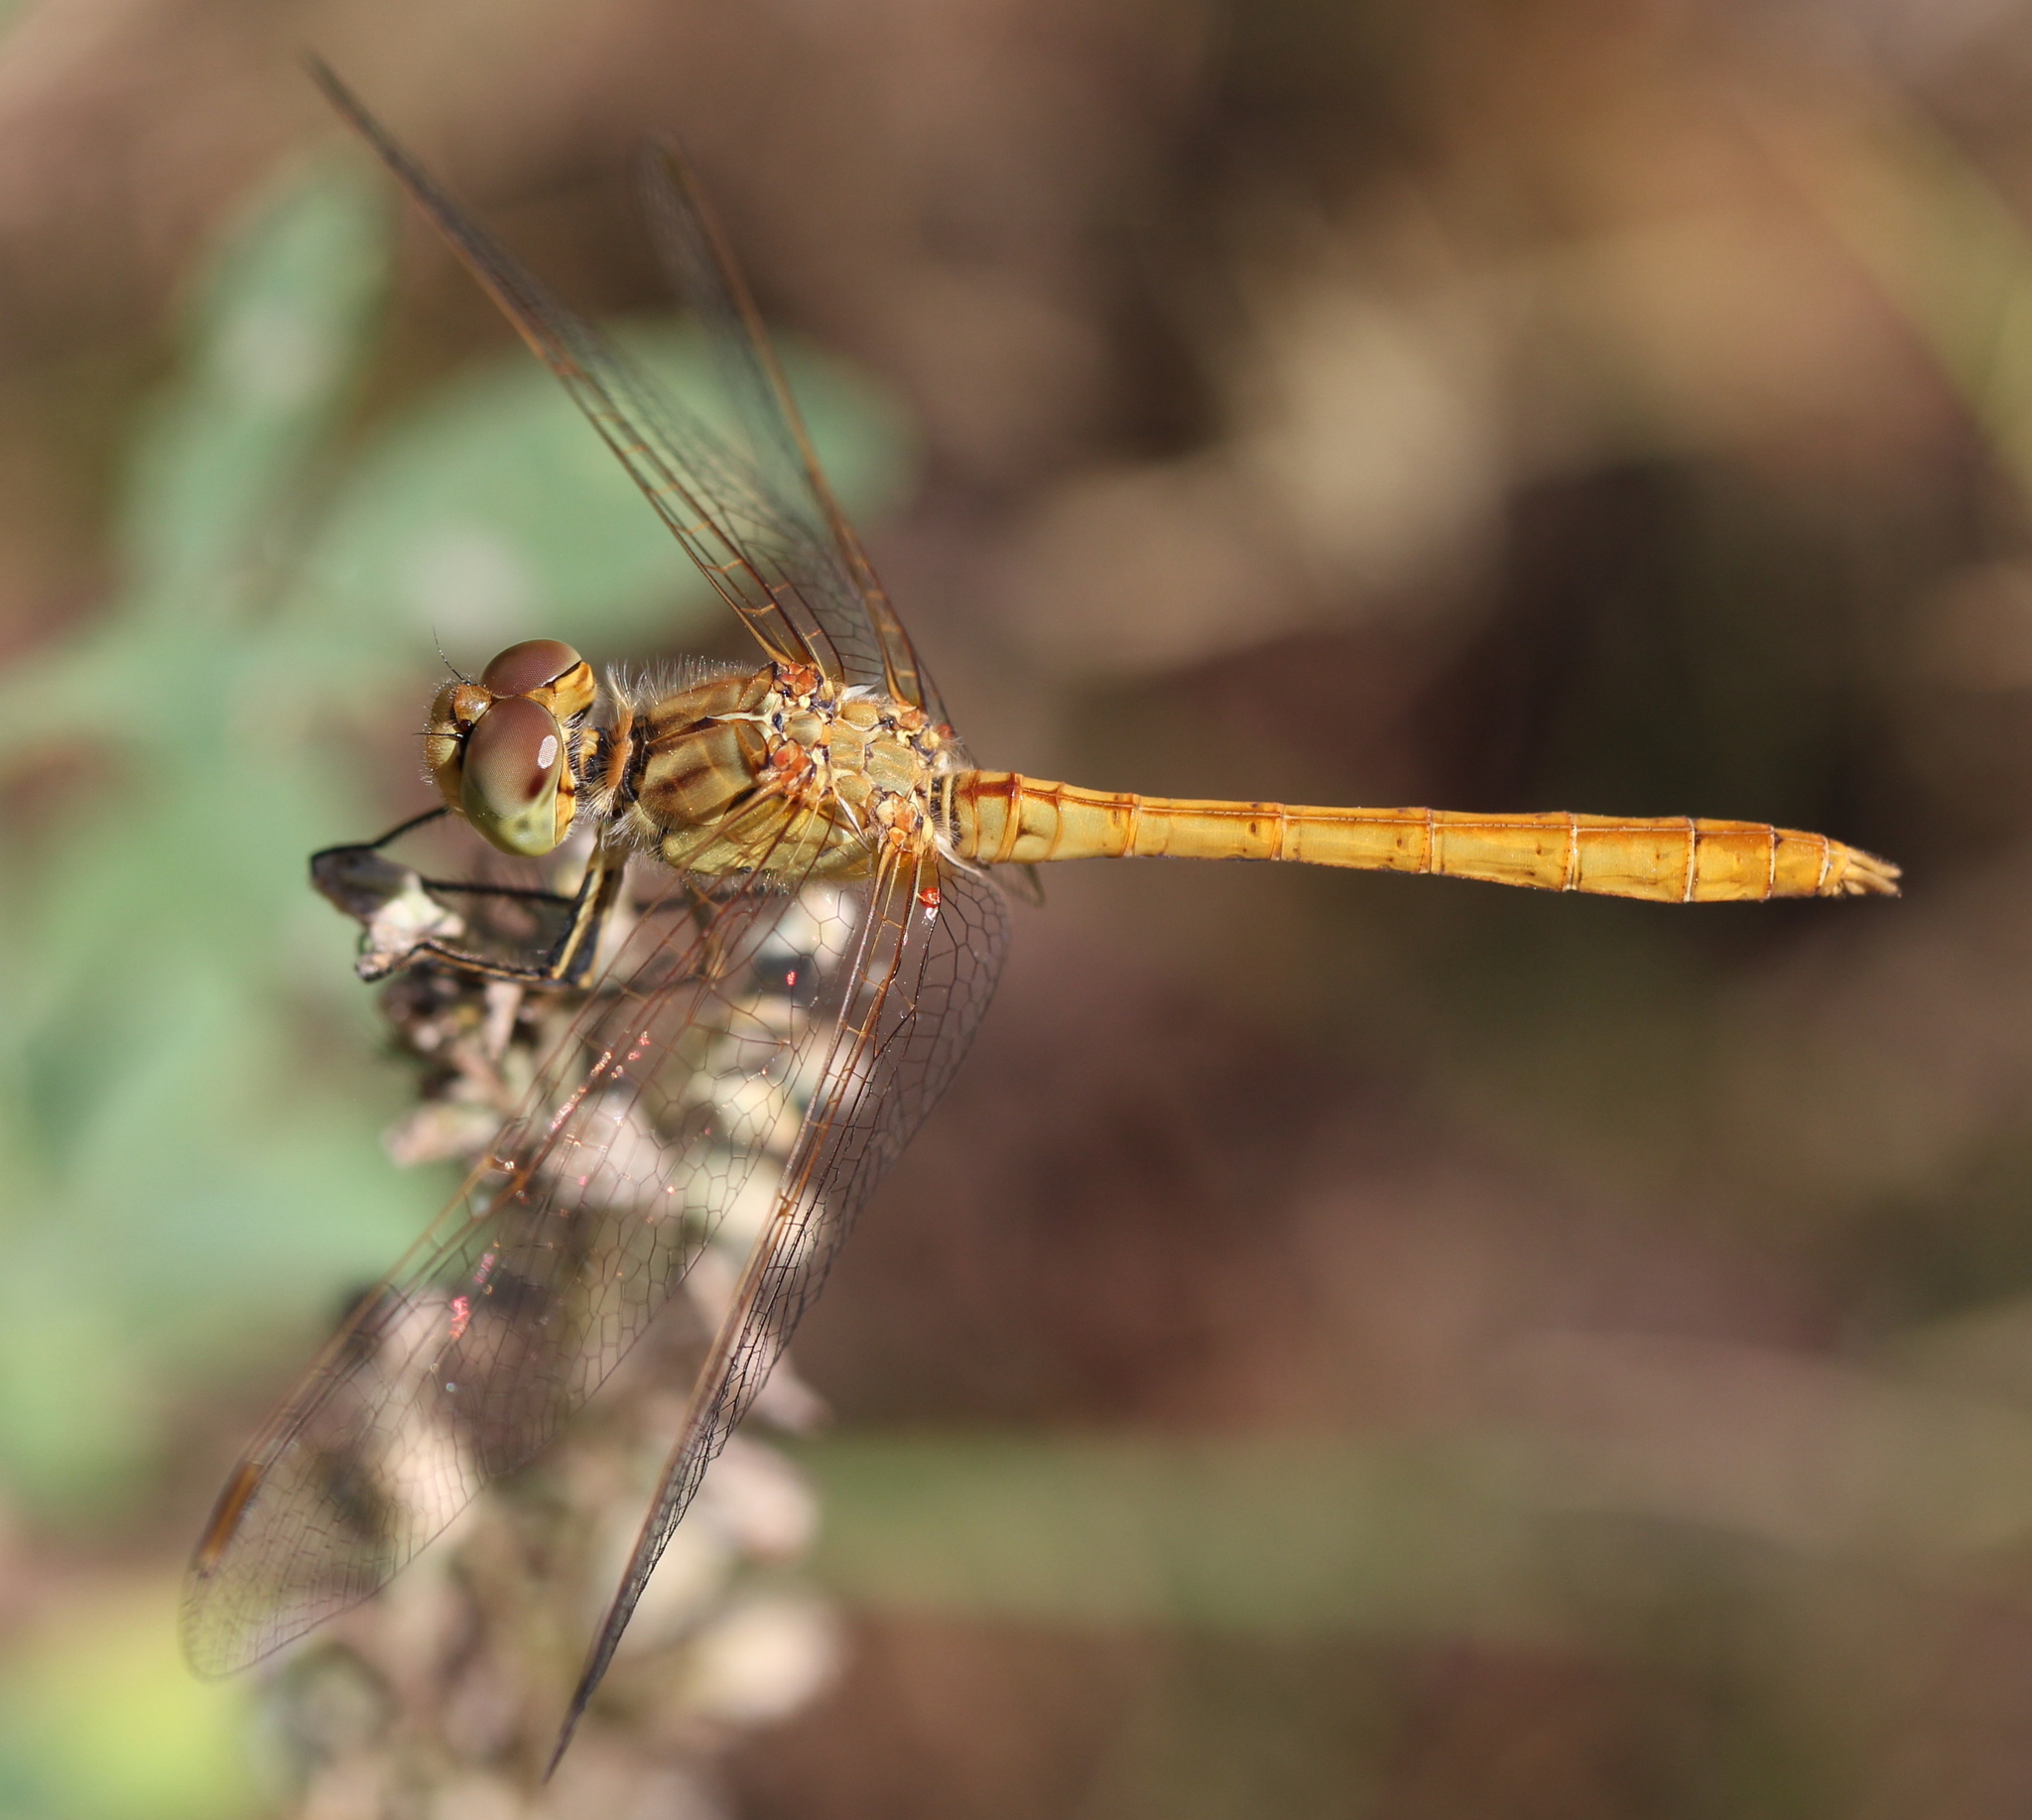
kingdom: Animalia
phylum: Arthropoda
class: Insecta
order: Odonata
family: Libellulidae
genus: Sympetrum
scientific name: Sympetrum meridionale
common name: Southern darter
